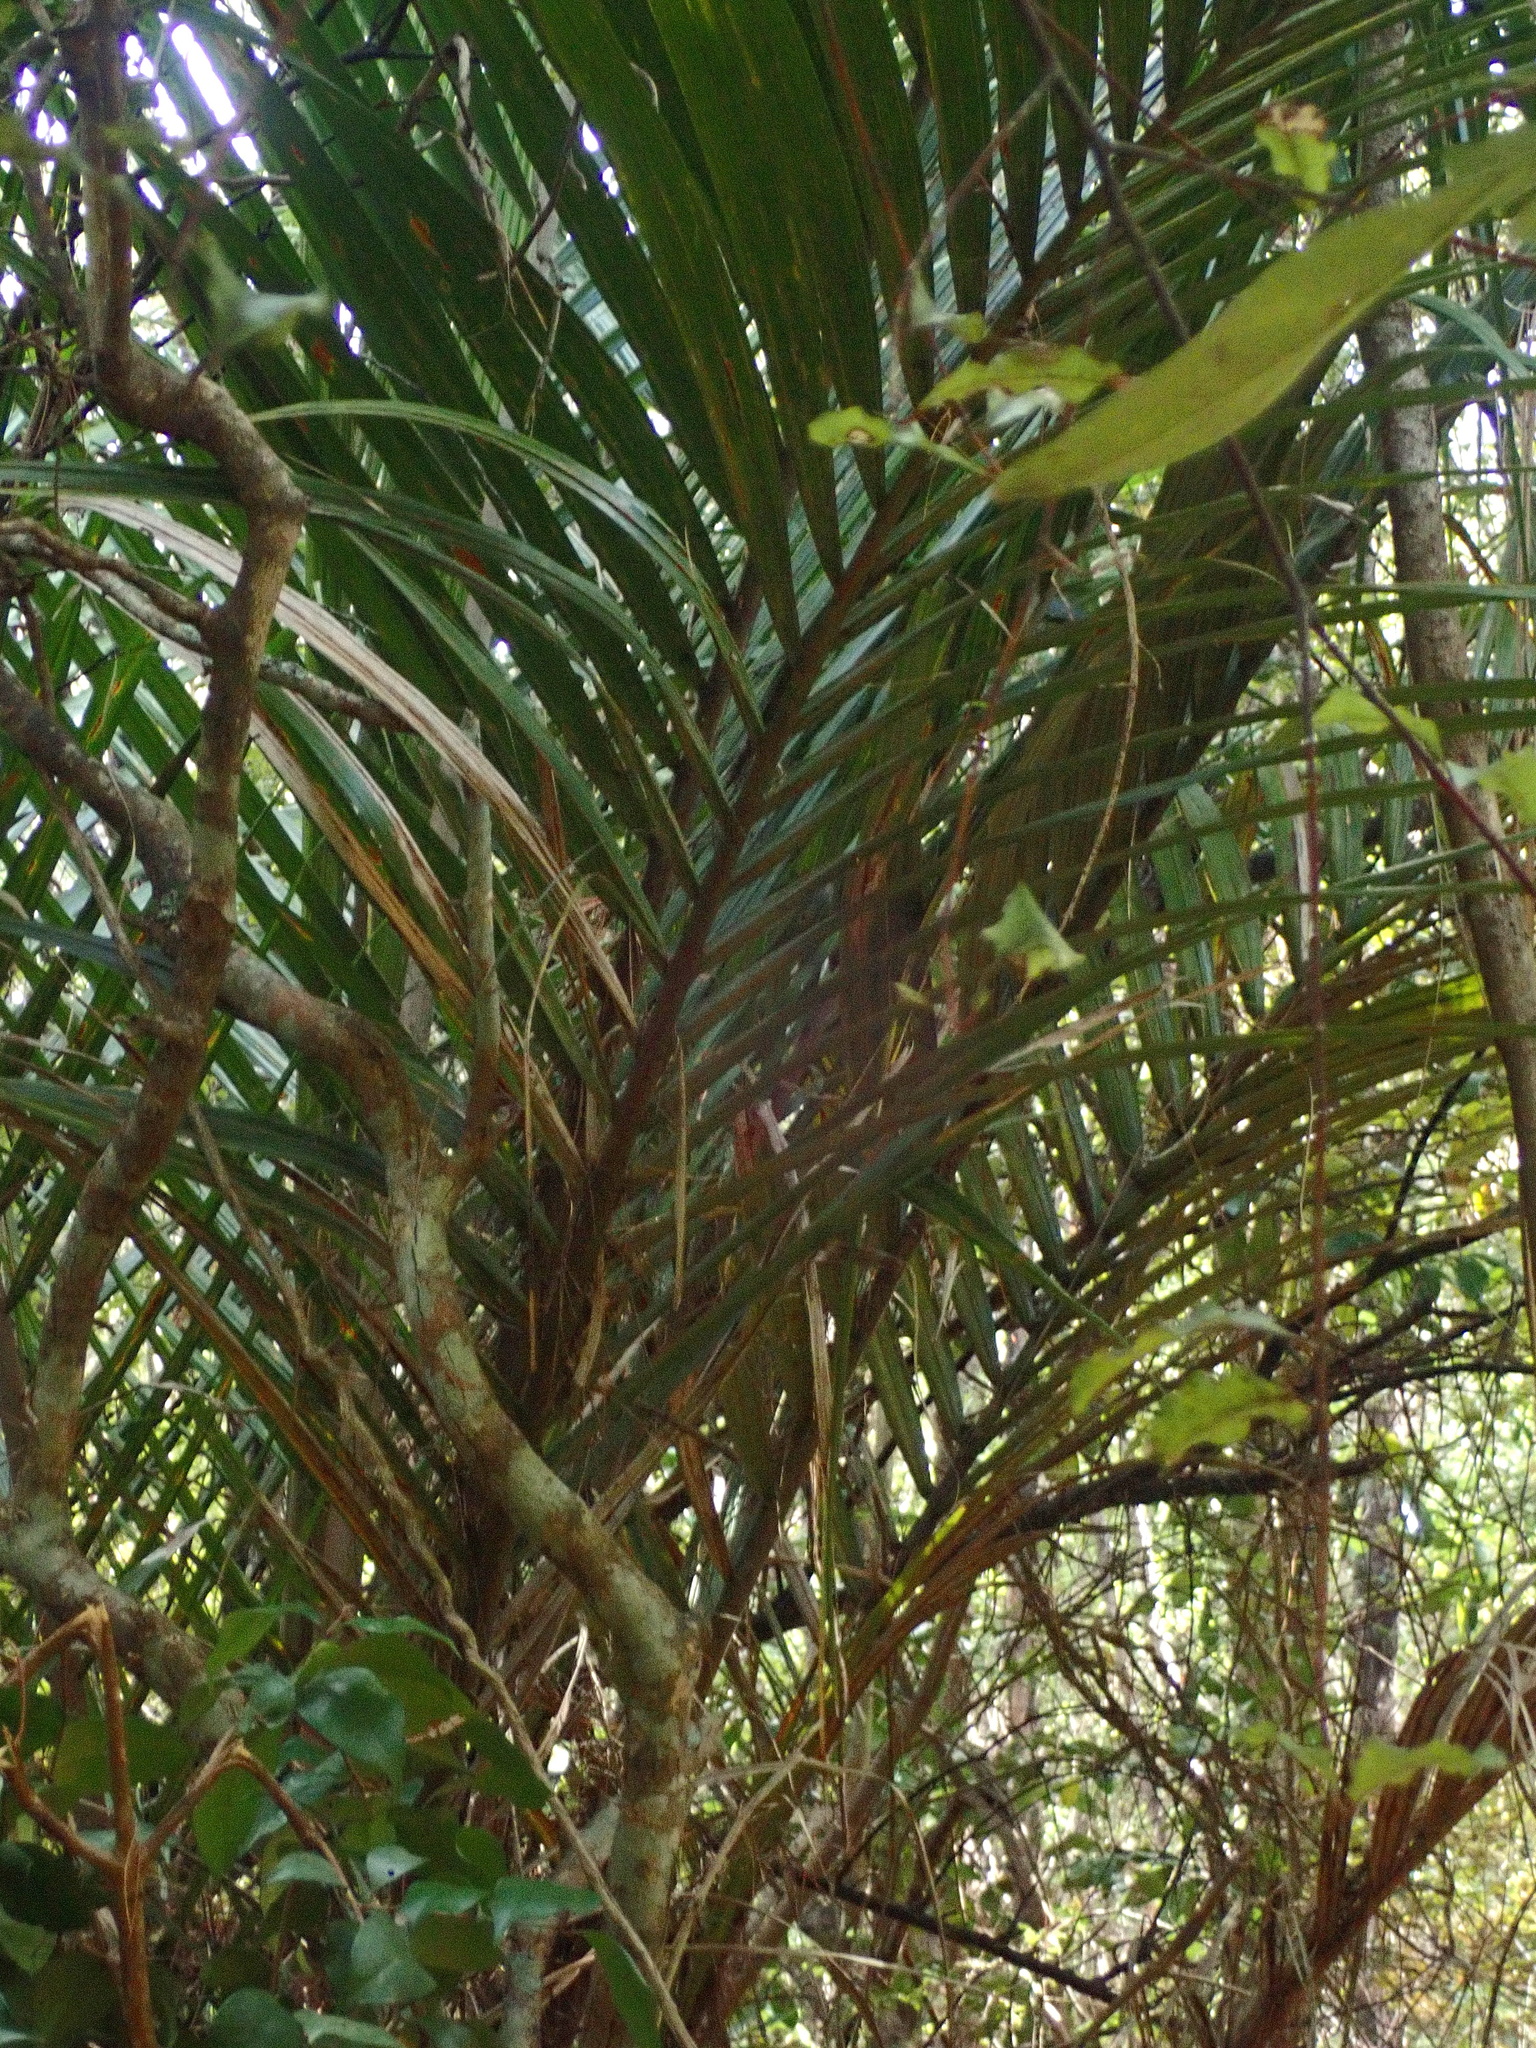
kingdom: Plantae
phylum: Tracheophyta
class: Liliopsida
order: Arecales
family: Arecaceae
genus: Rhopalostylis
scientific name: Rhopalostylis sapida
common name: Feather-duster palm
